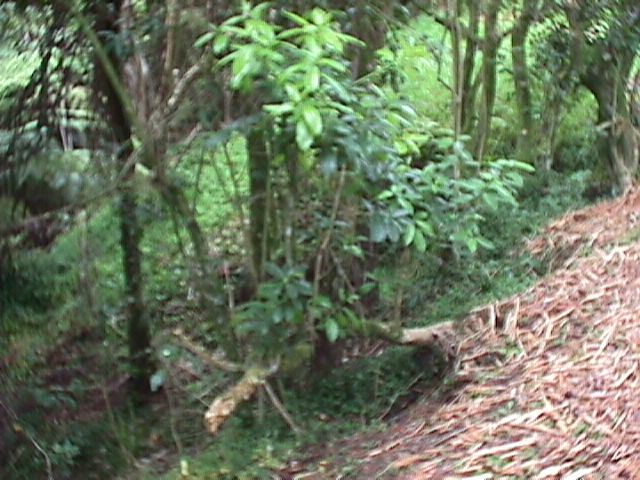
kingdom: Plantae
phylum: Tracheophyta
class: Magnoliopsida
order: Malpighiales
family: Violaceae
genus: Melicytus
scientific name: Melicytus ramiflorus
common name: Mahoe
